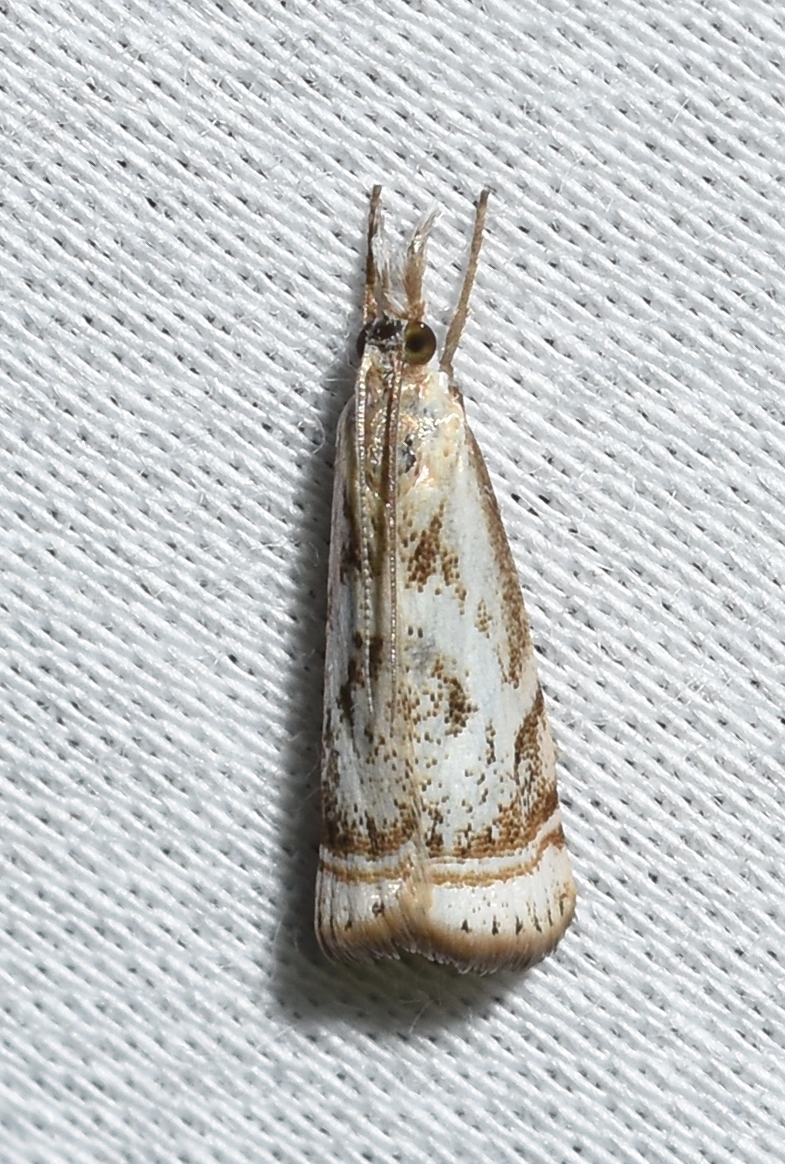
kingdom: Animalia
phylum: Arthropoda
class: Insecta
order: Lepidoptera
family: Crambidae
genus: Microcrambus
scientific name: Microcrambus elegans
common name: Elegant grass-veneer
